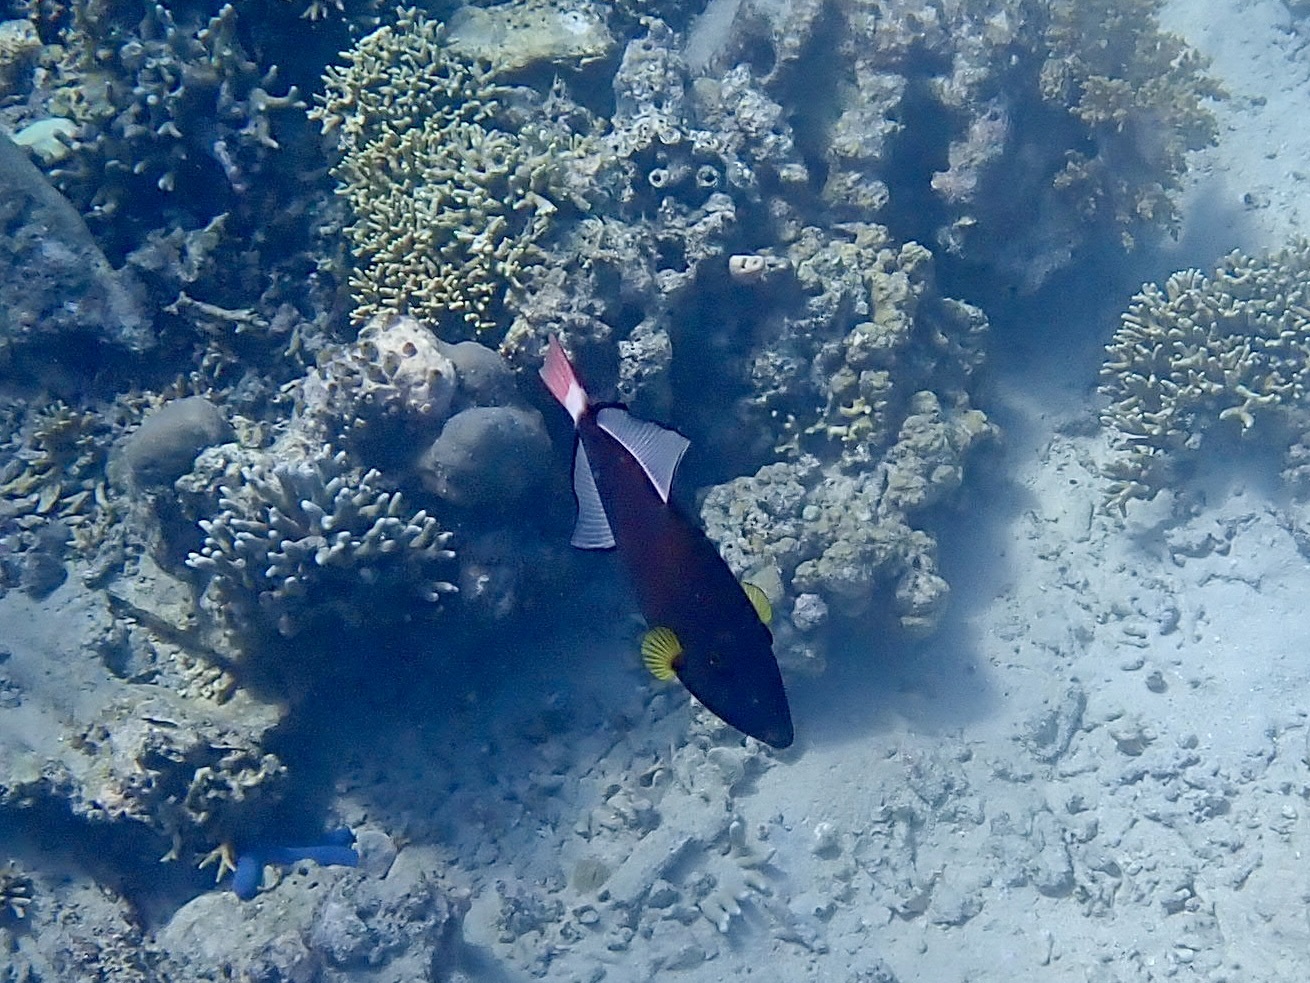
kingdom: Animalia
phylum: Chordata
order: Tetraodontiformes
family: Balistidae
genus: Melichthys
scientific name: Melichthys vidua
